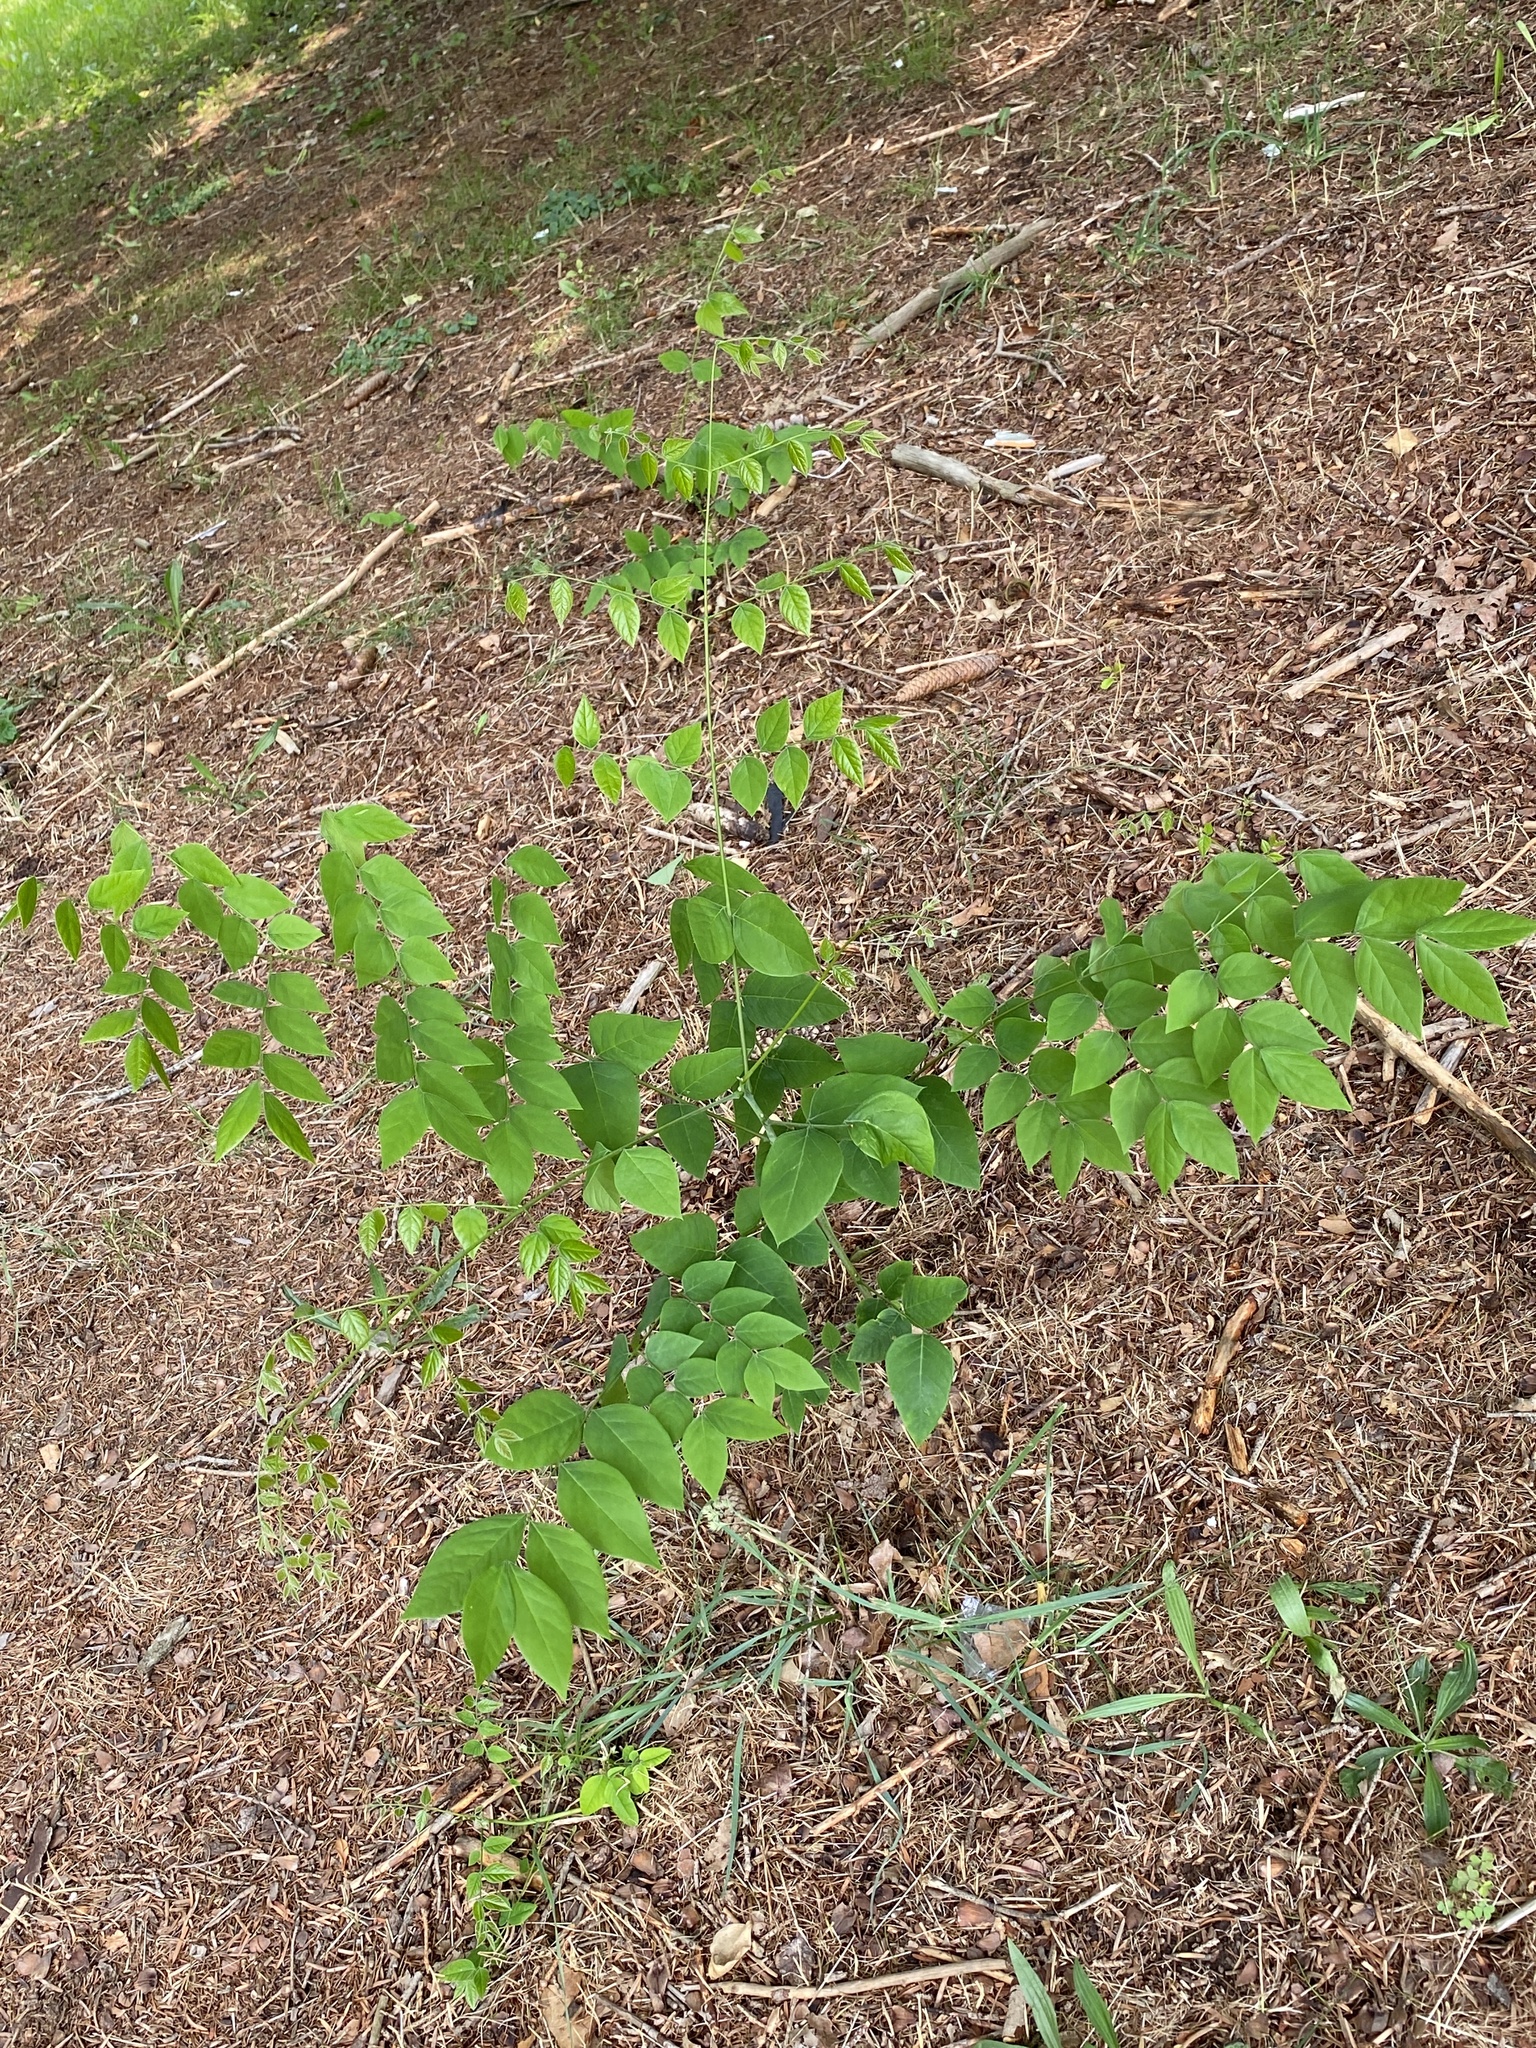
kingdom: Plantae
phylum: Tracheophyta
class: Magnoliopsida
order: Fabales
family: Fabaceae
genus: Gymnocladus
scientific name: Gymnocladus dioicus
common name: Kentucky coffee-tree
